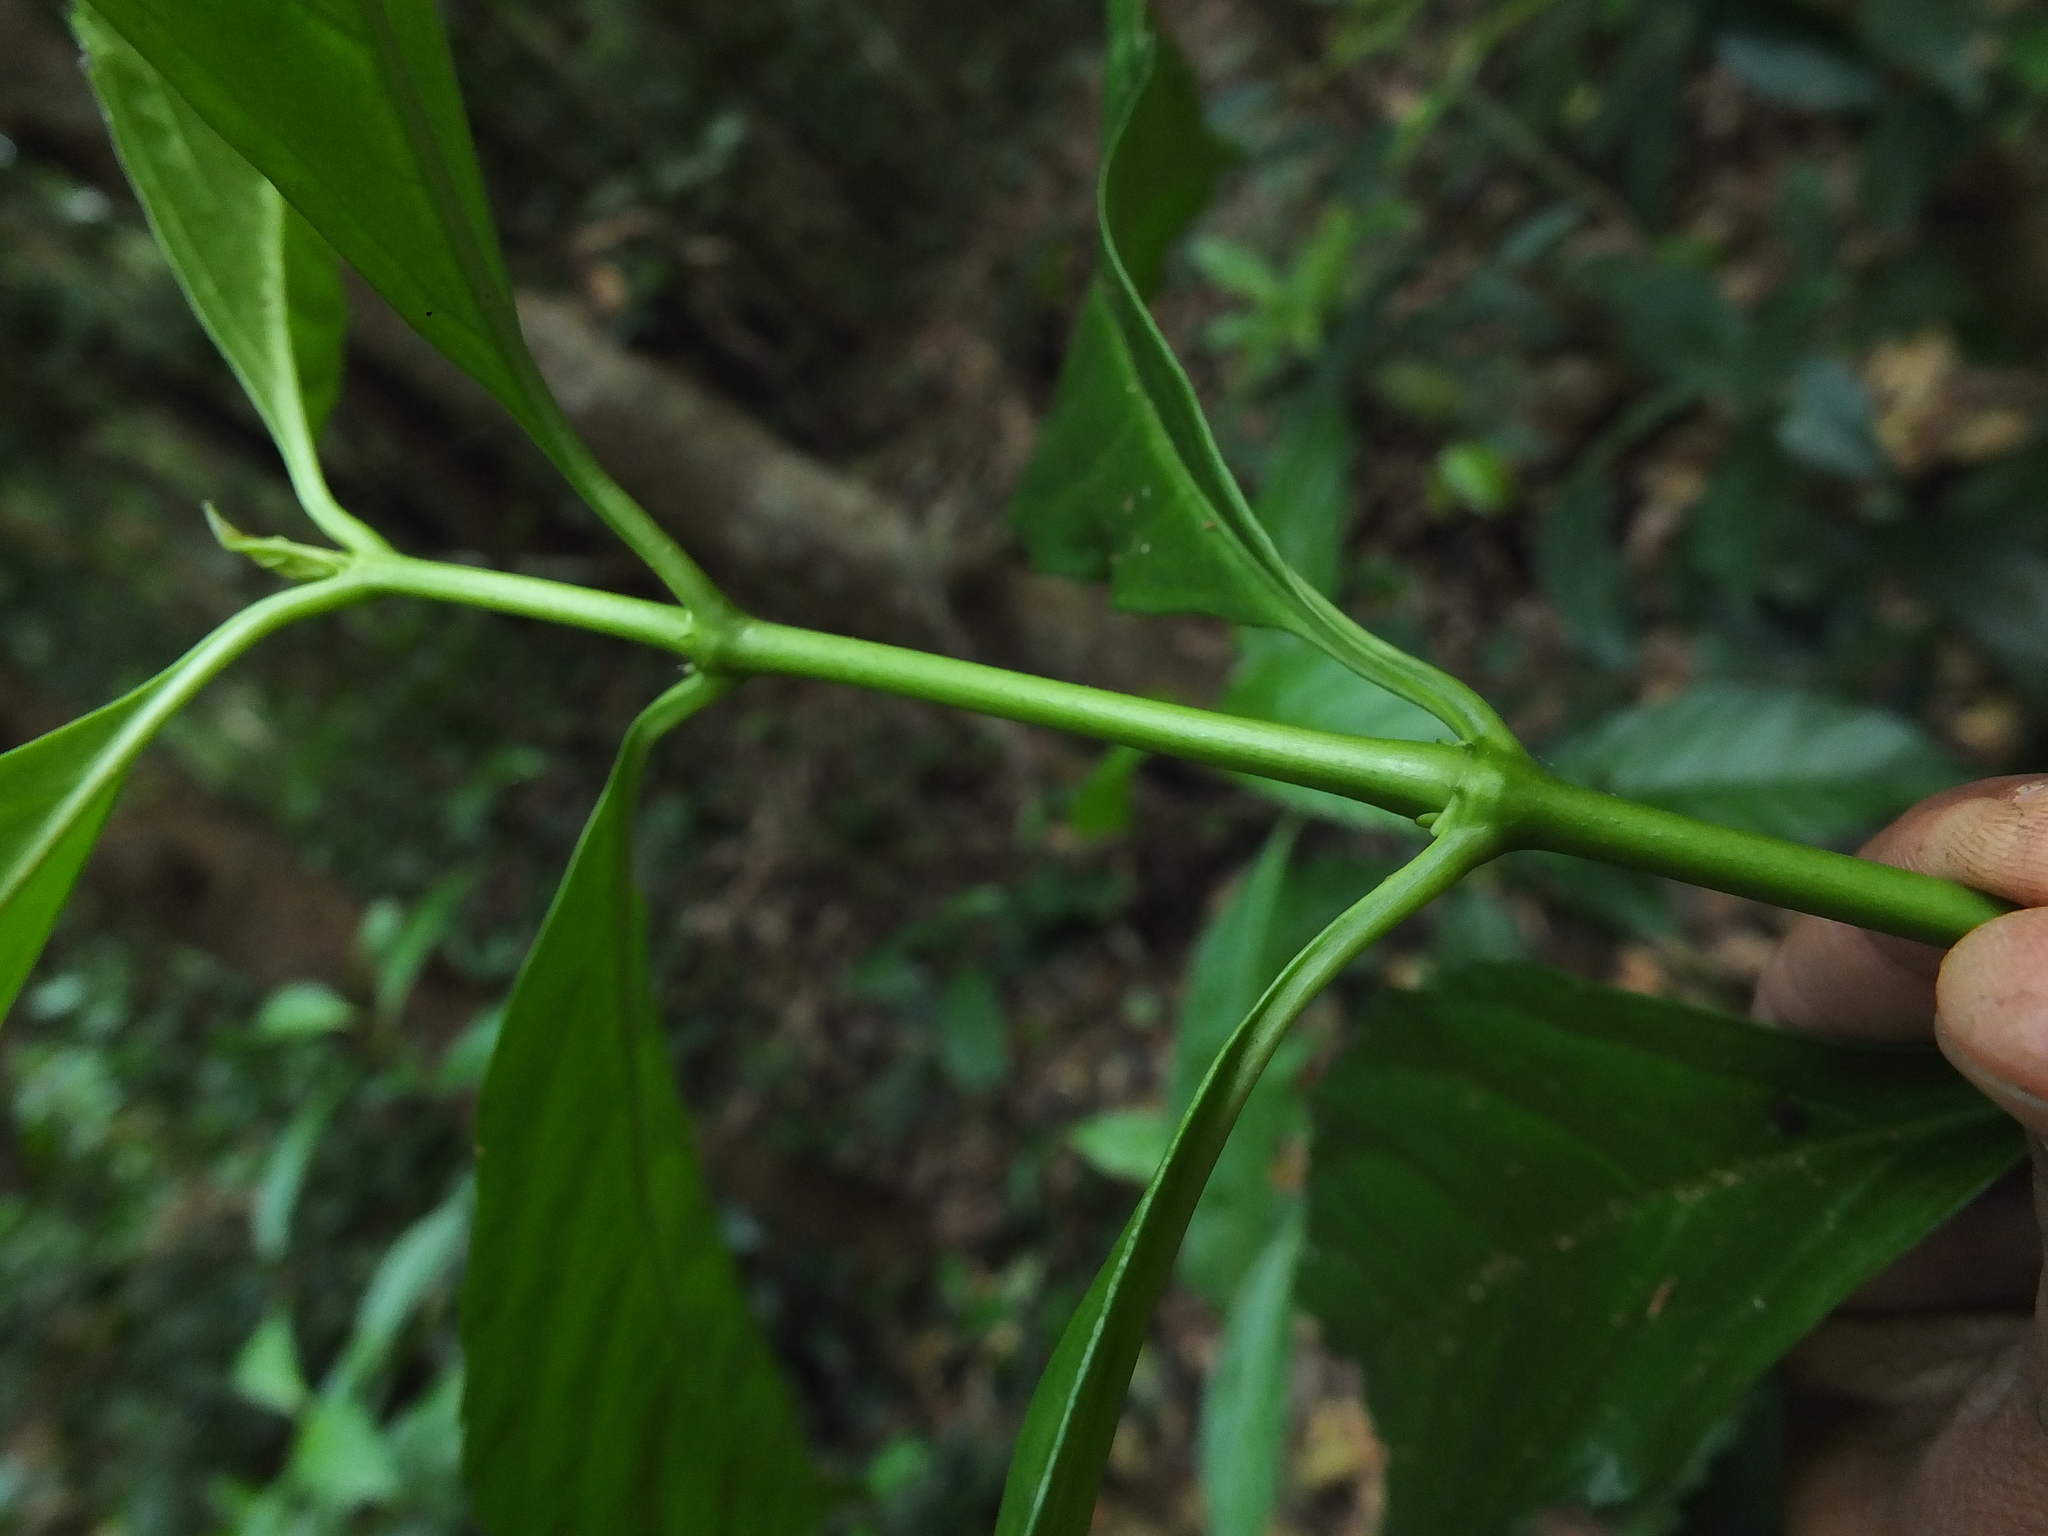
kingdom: Plantae
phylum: Tracheophyta
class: Magnoliopsida
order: Chloranthales
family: Chloranthaceae
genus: Sarcandra
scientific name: Sarcandra glabra
